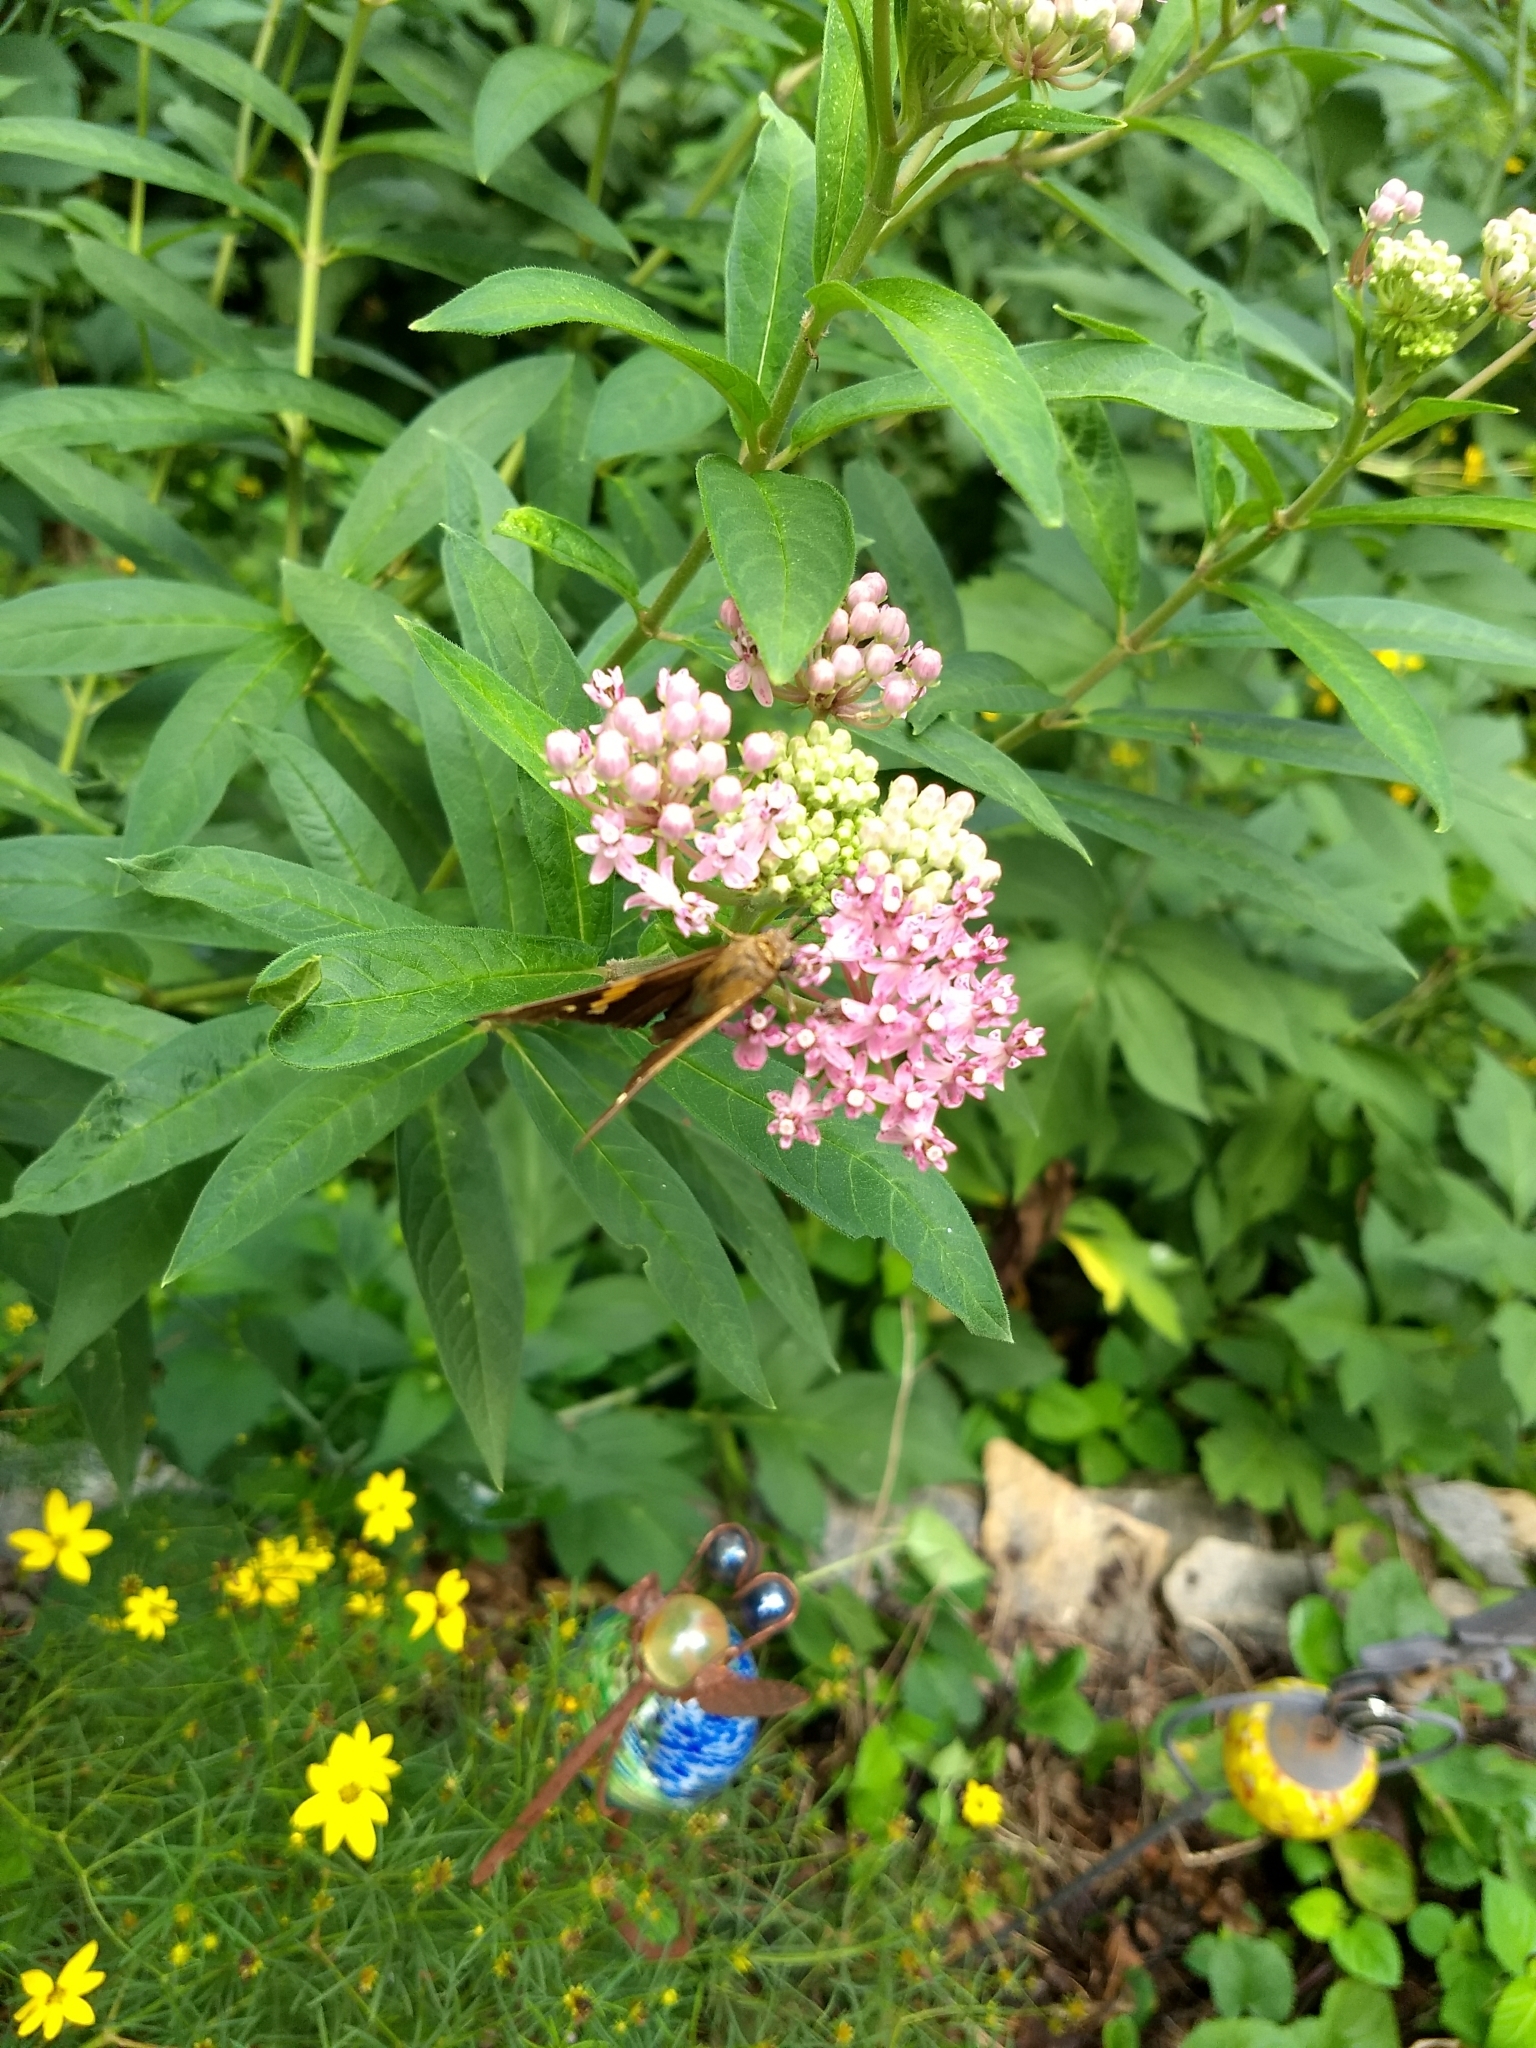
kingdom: Animalia
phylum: Arthropoda
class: Insecta
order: Lepidoptera
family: Hesperiidae
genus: Epargyreus
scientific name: Epargyreus clarus
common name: Silver-spotted skipper
